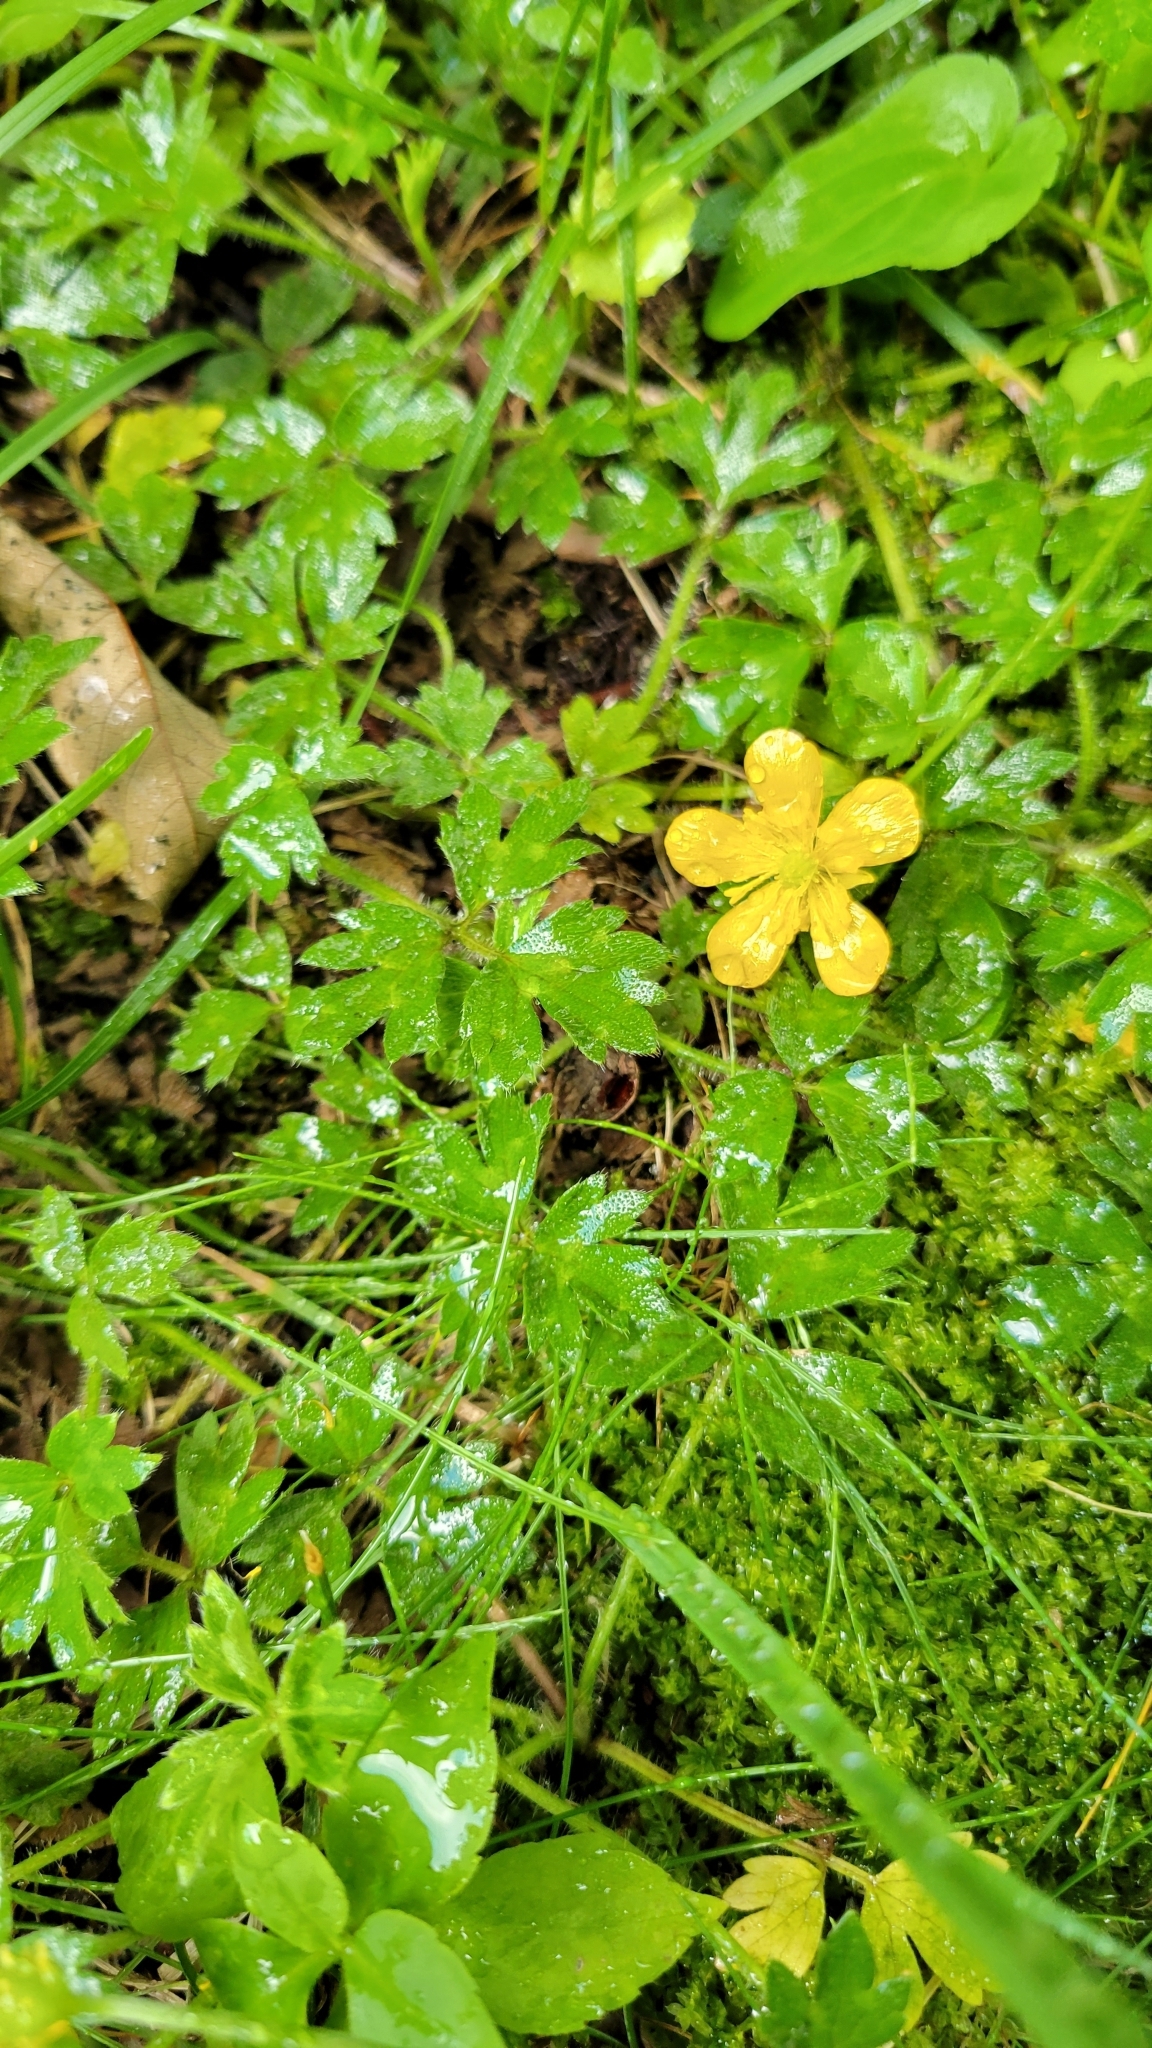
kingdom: Plantae
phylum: Tracheophyta
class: Magnoliopsida
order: Ranunculales
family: Ranunculaceae
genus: Ranunculus
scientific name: Ranunculus repens
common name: Creeping buttercup
